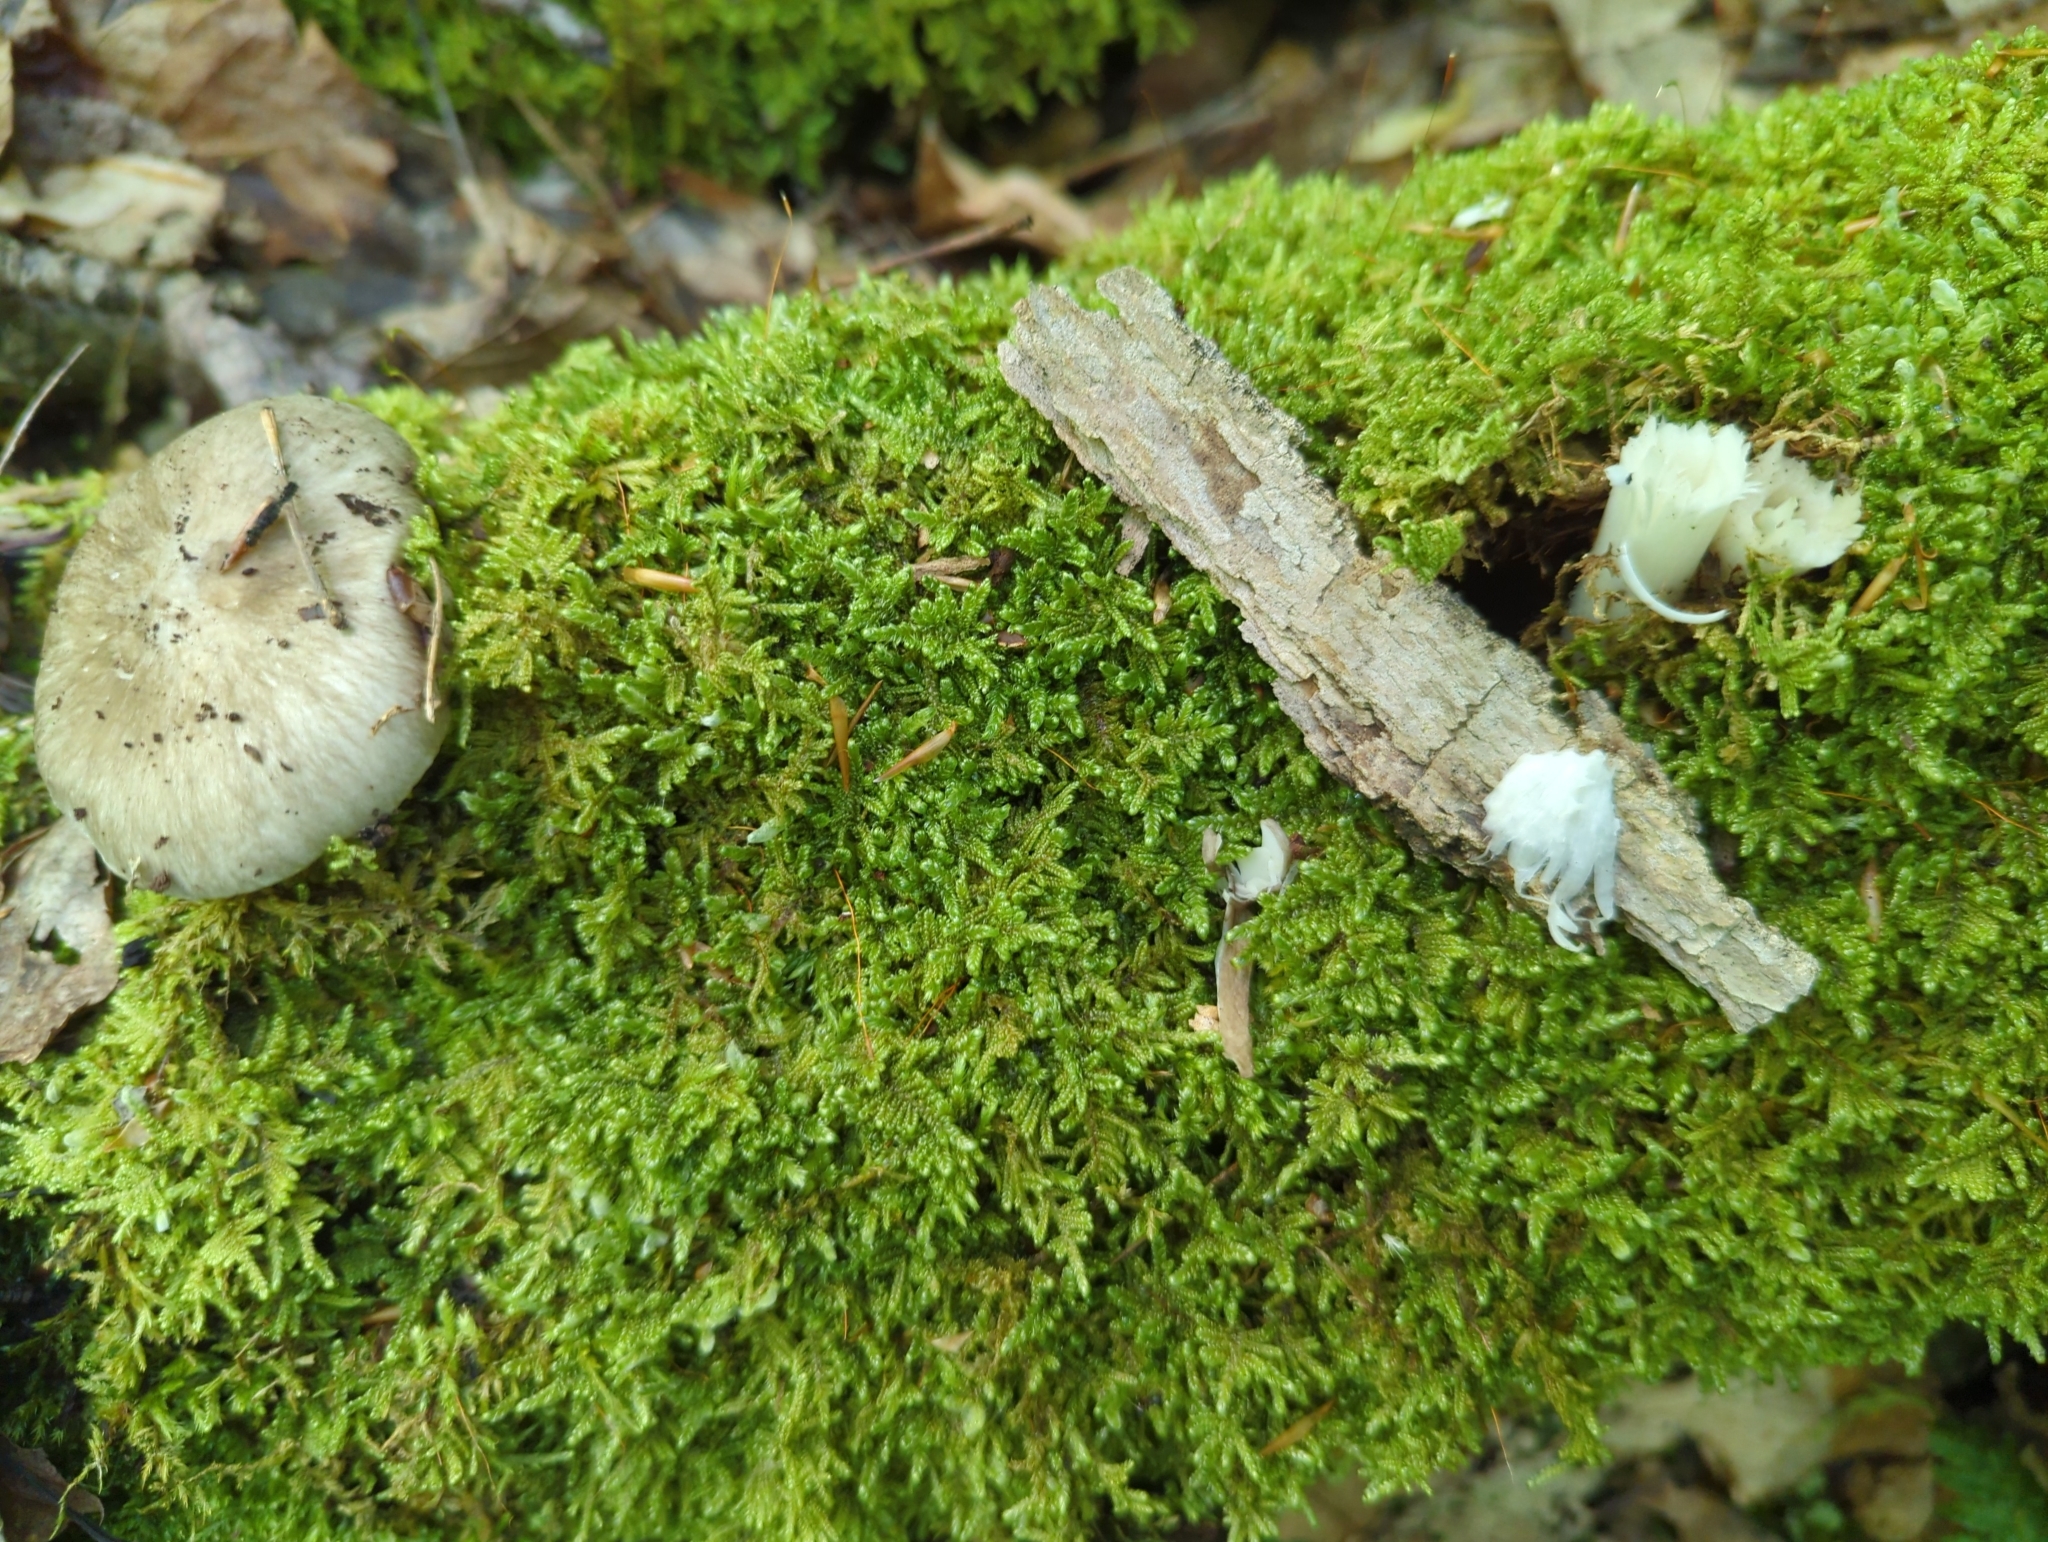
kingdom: Fungi
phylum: Basidiomycota
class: Agaricomycetes
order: Agaricales
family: Tricholomataceae
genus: Megacollybia
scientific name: Megacollybia rodmanii
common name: Eastern american platterful mushroom
